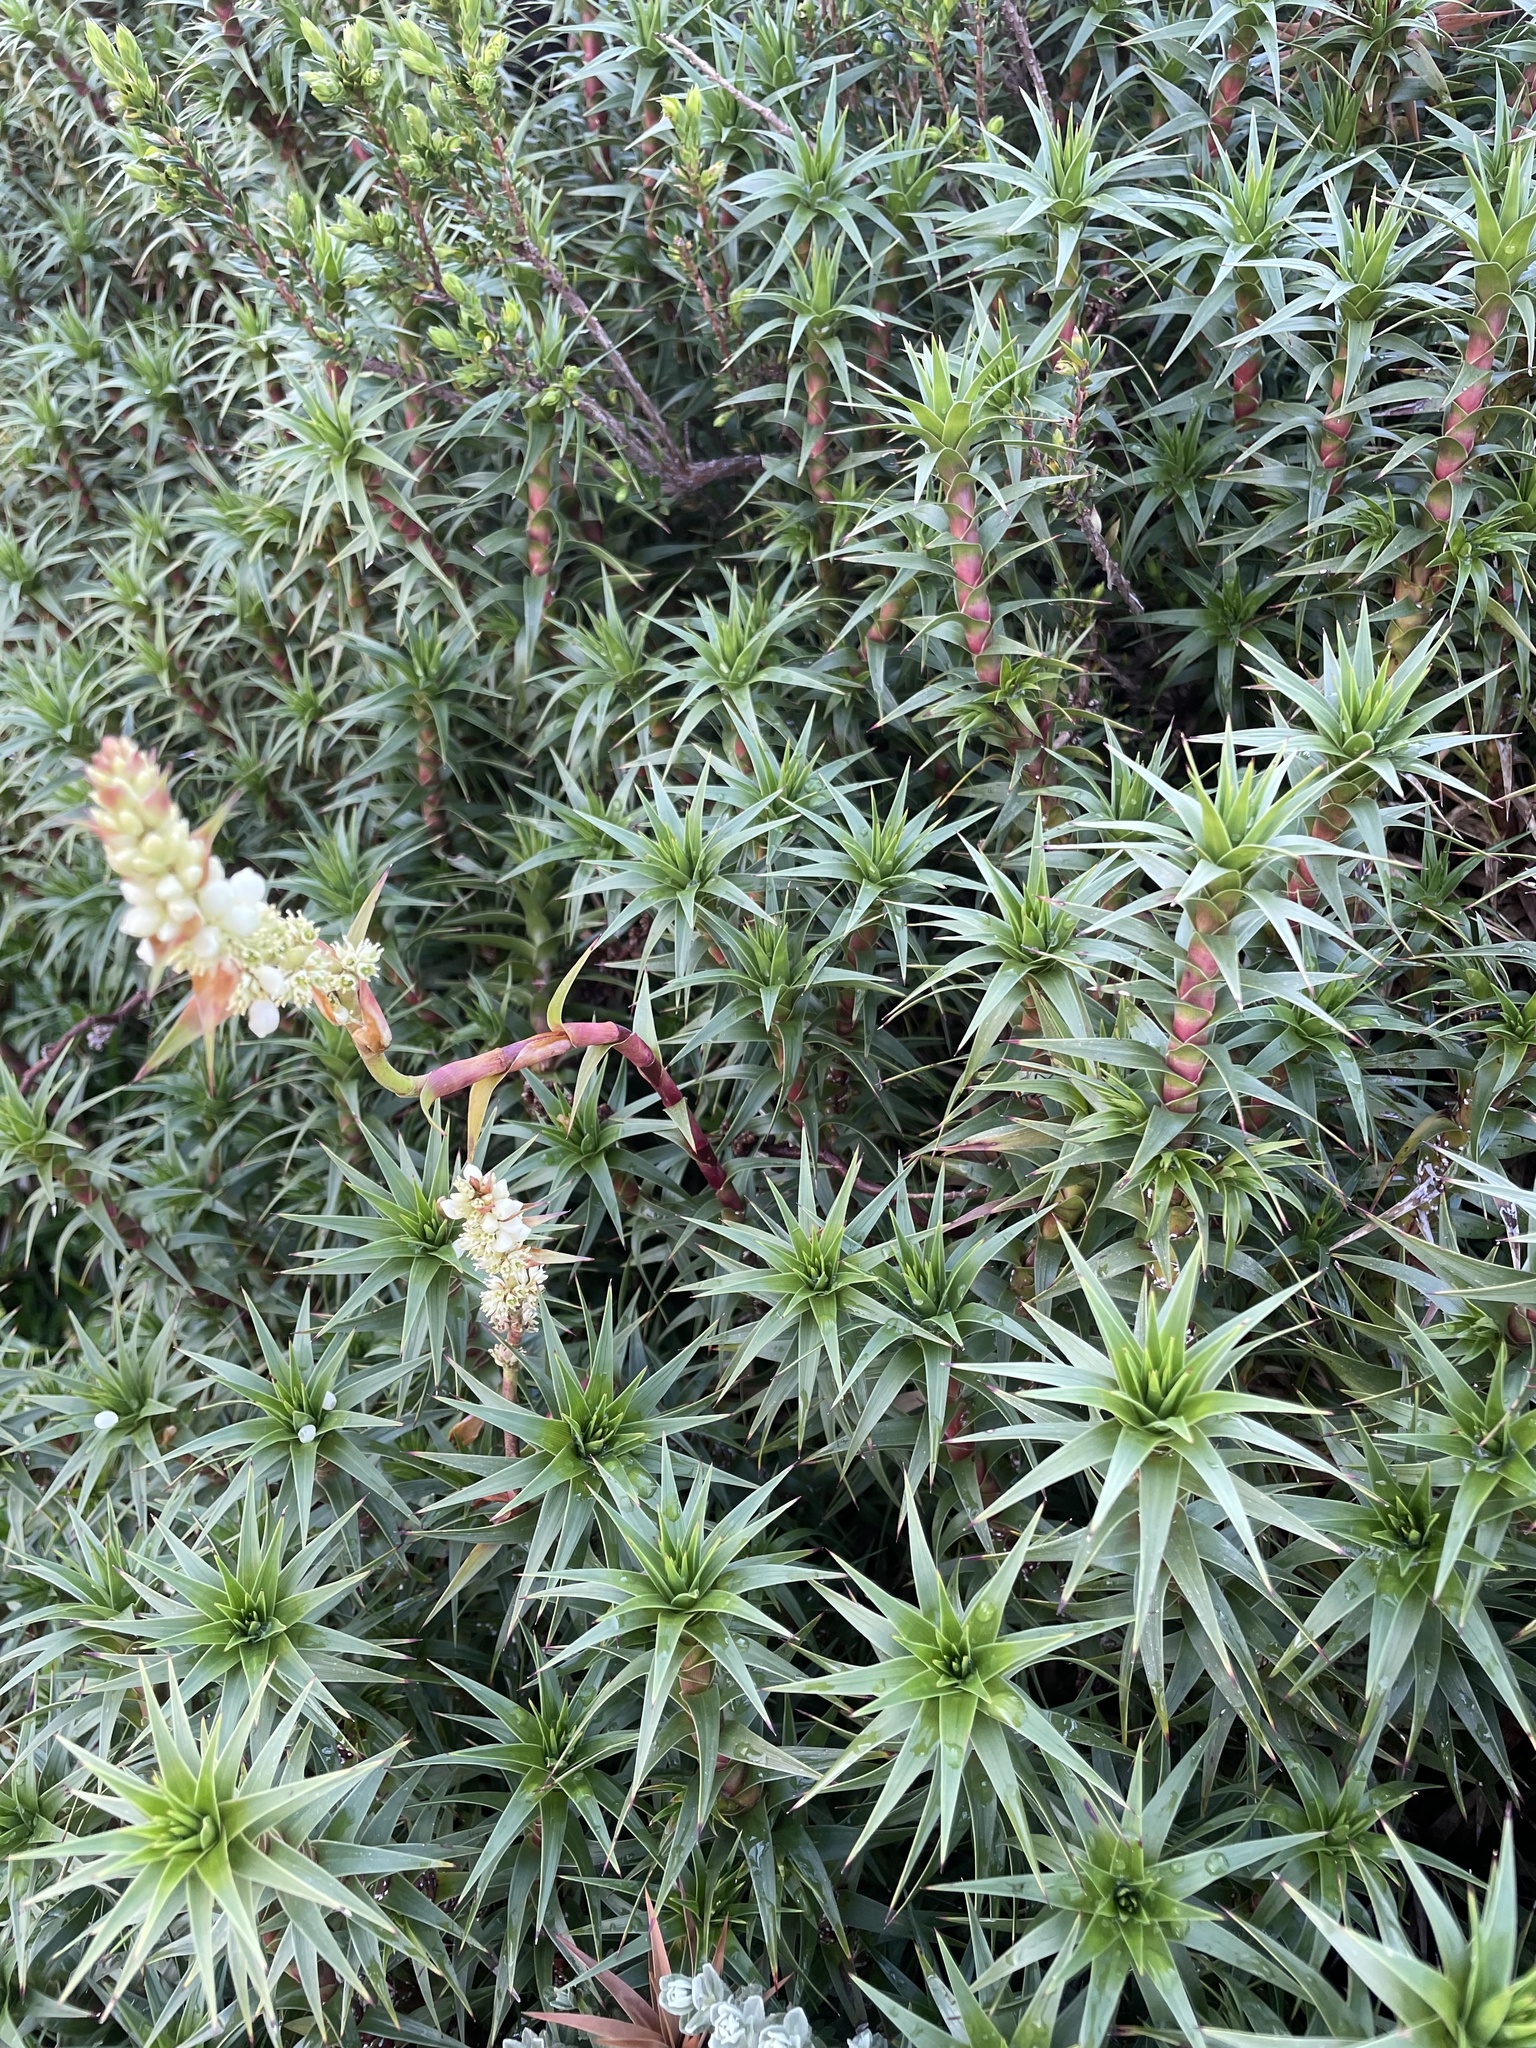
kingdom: Plantae
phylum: Tracheophyta
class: Magnoliopsida
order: Ericales
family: Ericaceae
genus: Dracophyllum
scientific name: Dracophyllum continentis
